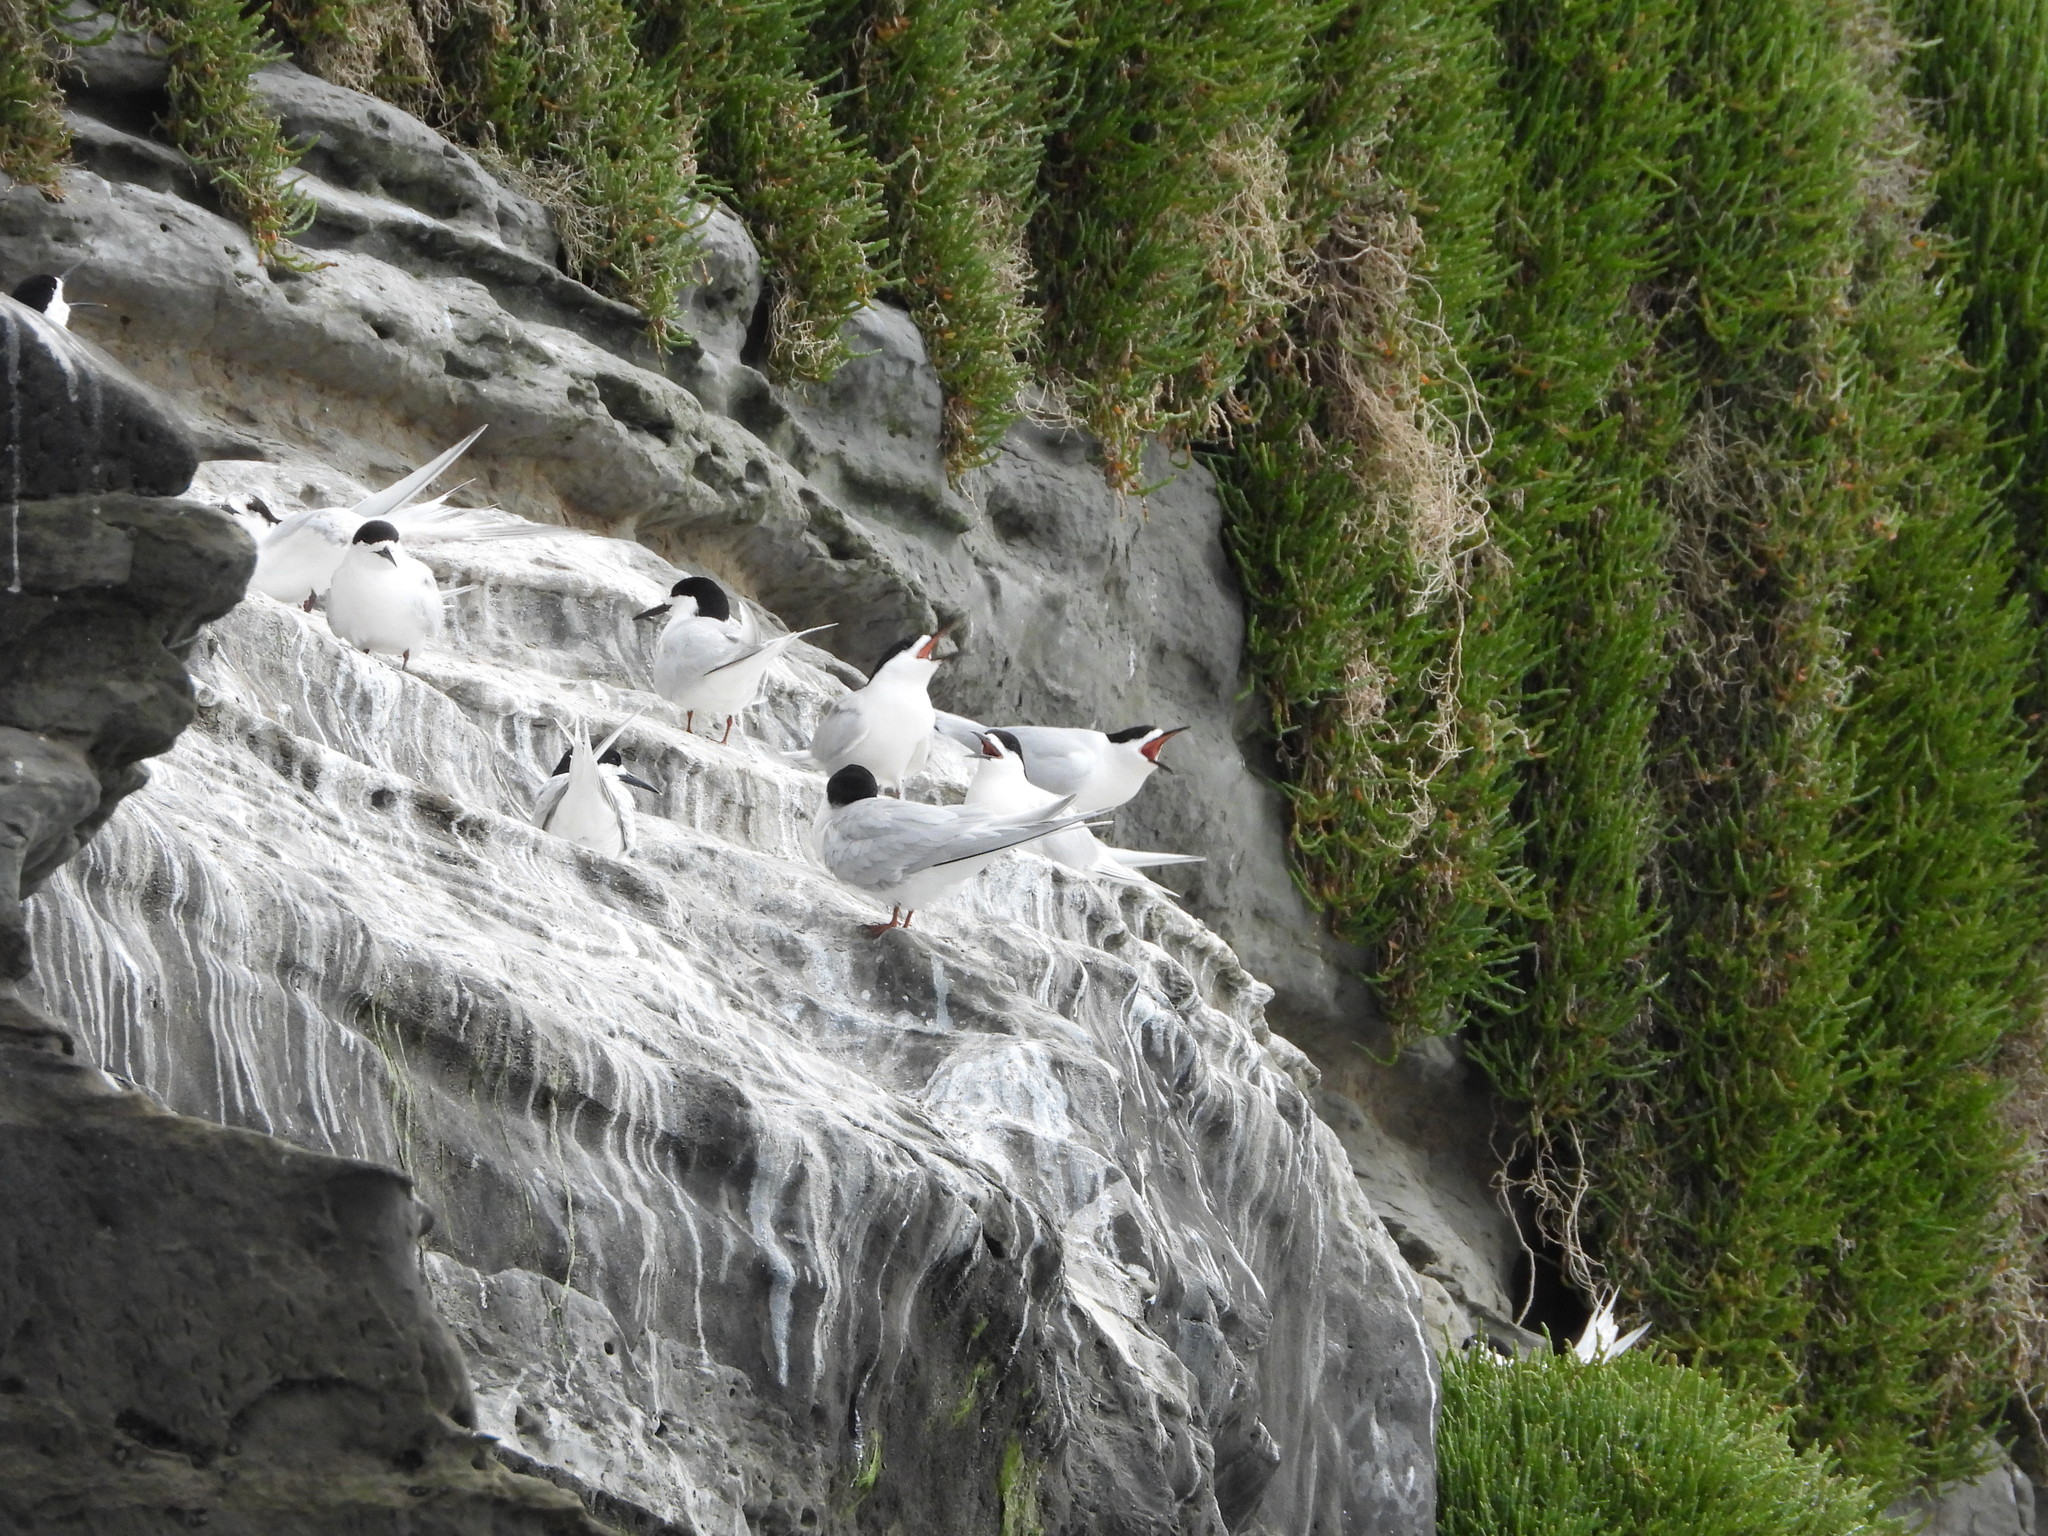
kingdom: Animalia
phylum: Chordata
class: Aves
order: Charadriiformes
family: Laridae
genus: Sterna
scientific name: Sterna striata
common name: White-fronted tern
